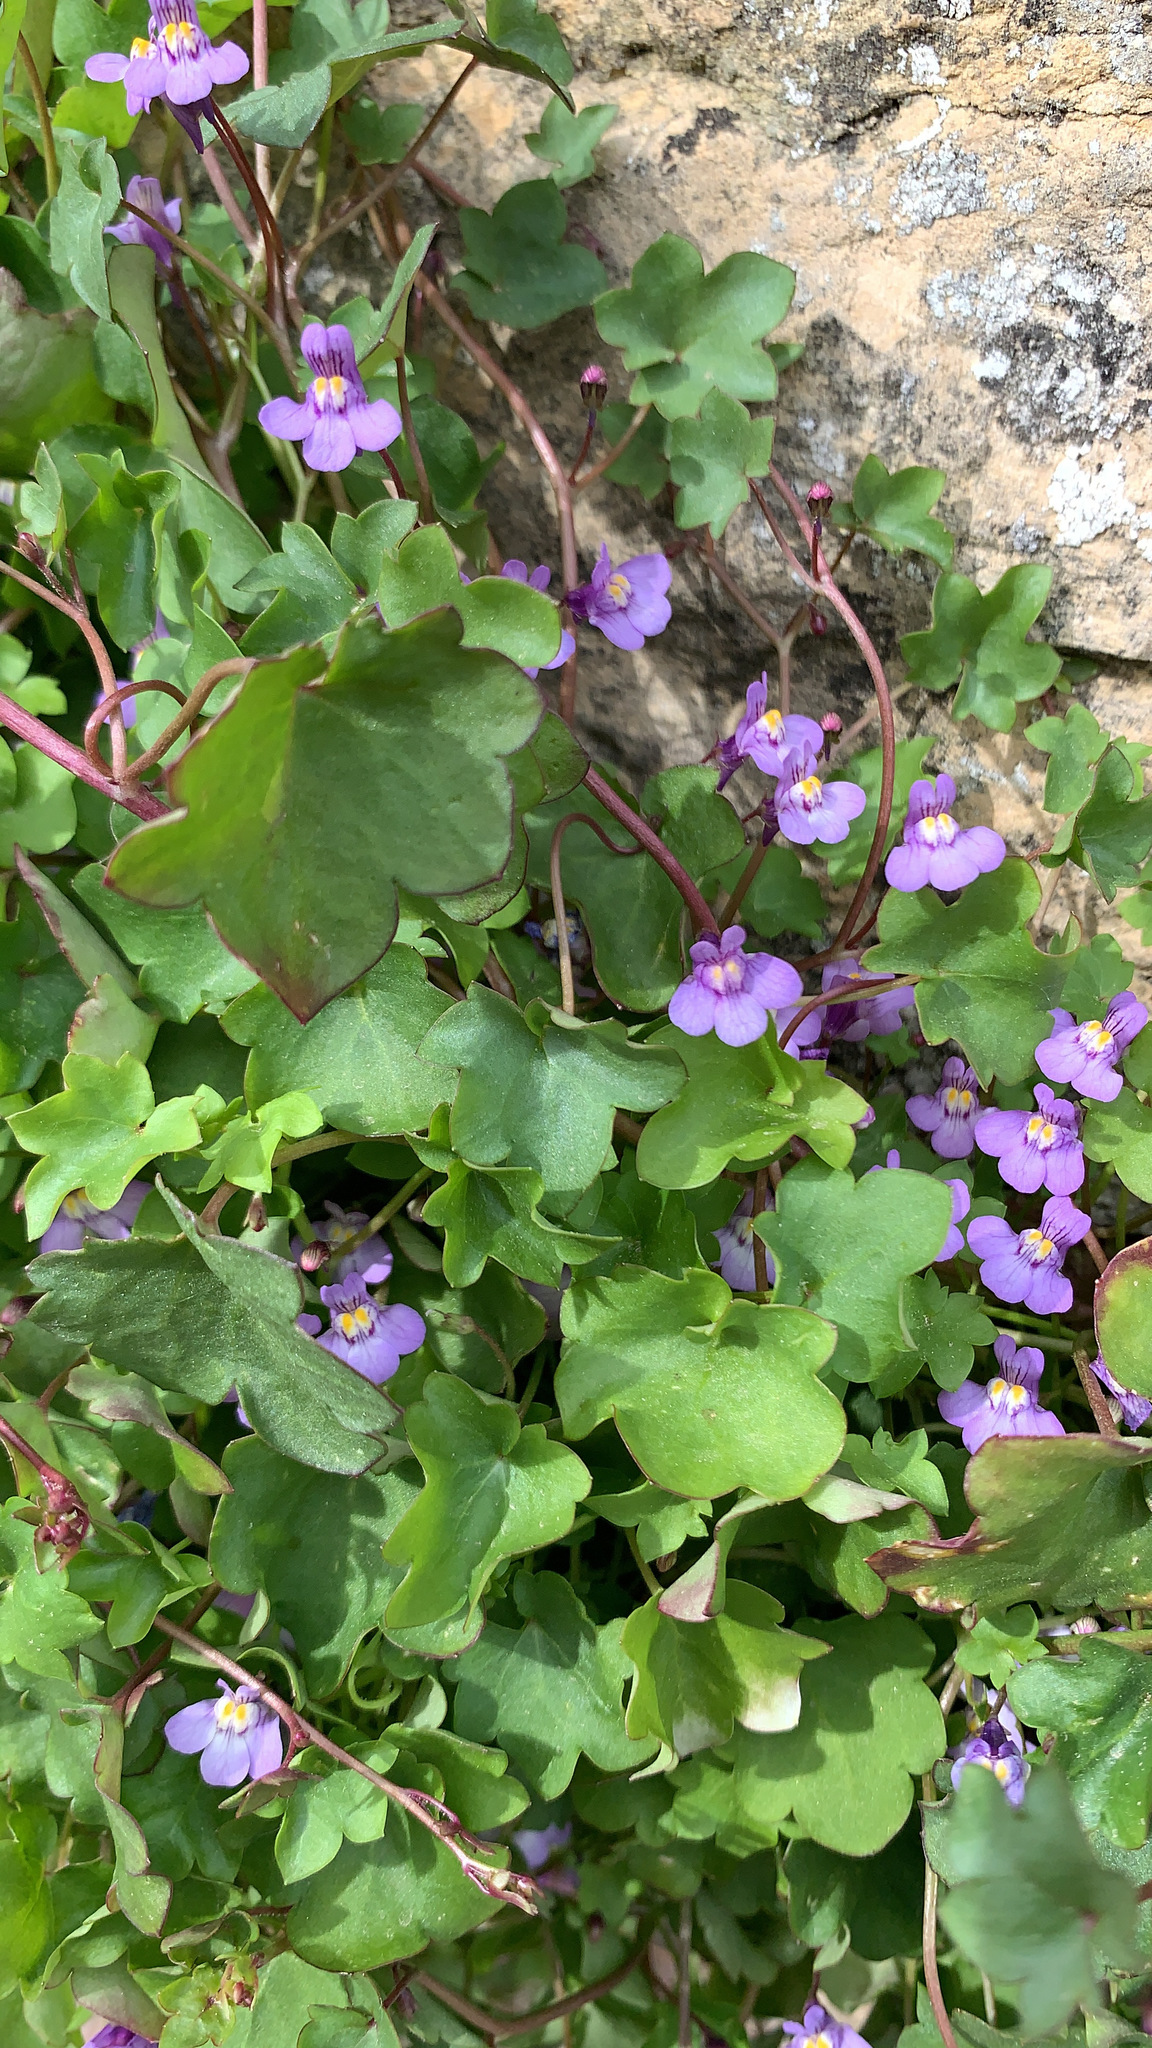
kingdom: Plantae
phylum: Tracheophyta
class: Magnoliopsida
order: Lamiales
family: Plantaginaceae
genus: Cymbalaria
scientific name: Cymbalaria muralis
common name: Ivy-leaved toadflax
